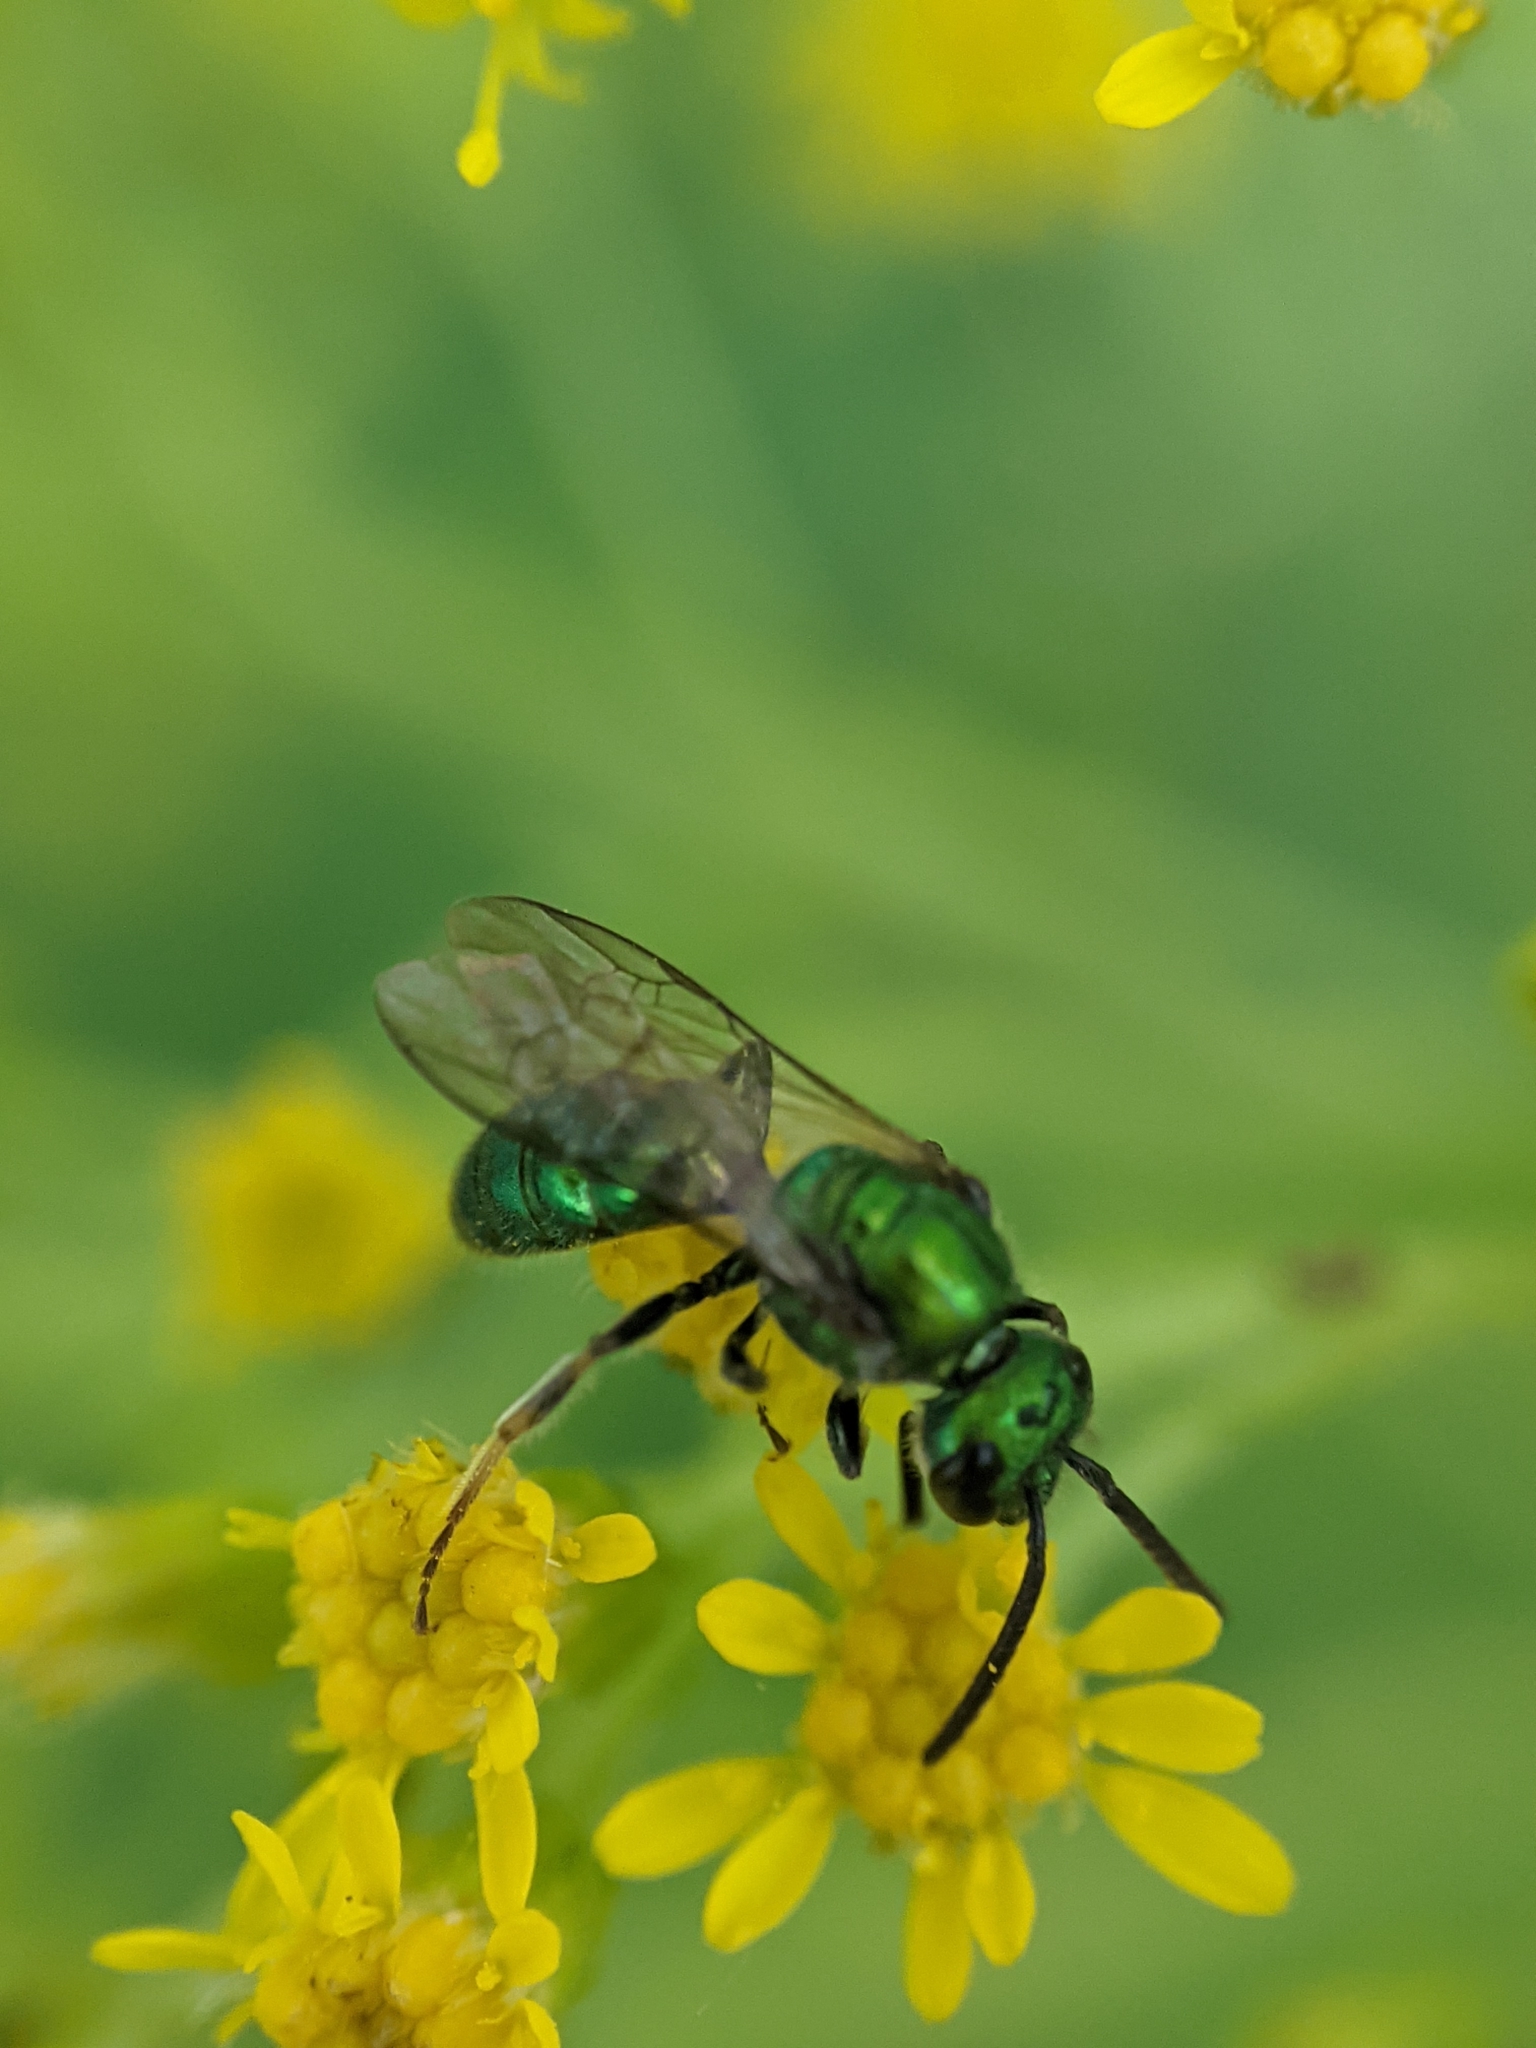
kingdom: Animalia
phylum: Arthropoda
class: Insecta
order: Hymenoptera
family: Halictidae
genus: Augochlora
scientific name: Augochlora pura
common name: Pure green sweat bee
